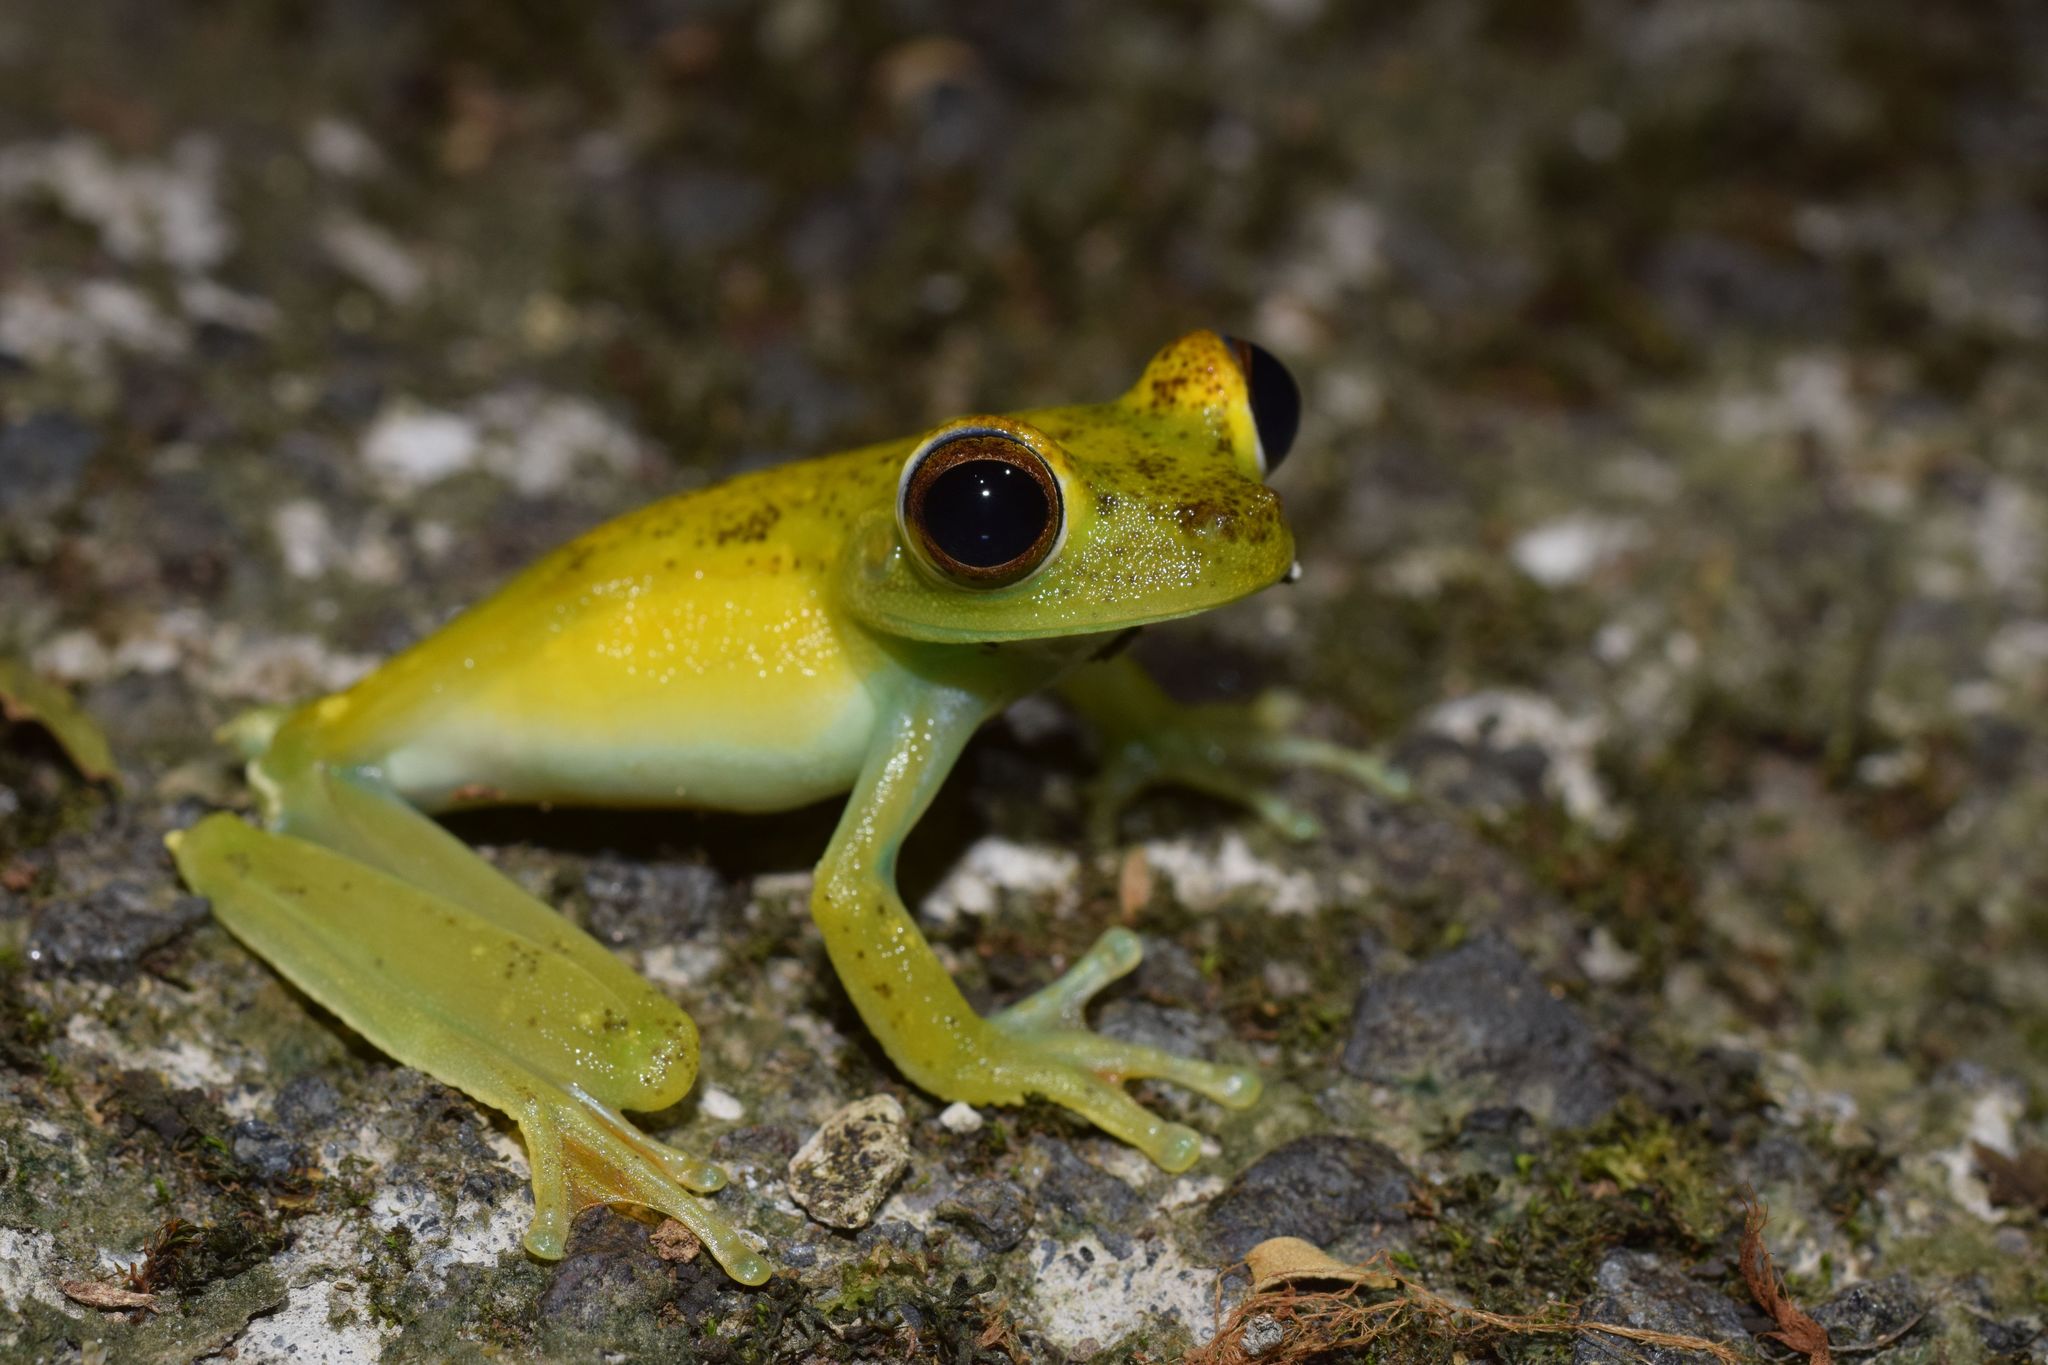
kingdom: Animalia
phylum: Chordata
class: Amphibia
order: Anura
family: Hylidae
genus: Boana
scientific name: Boana rufitela
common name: Canal zone treefrog
